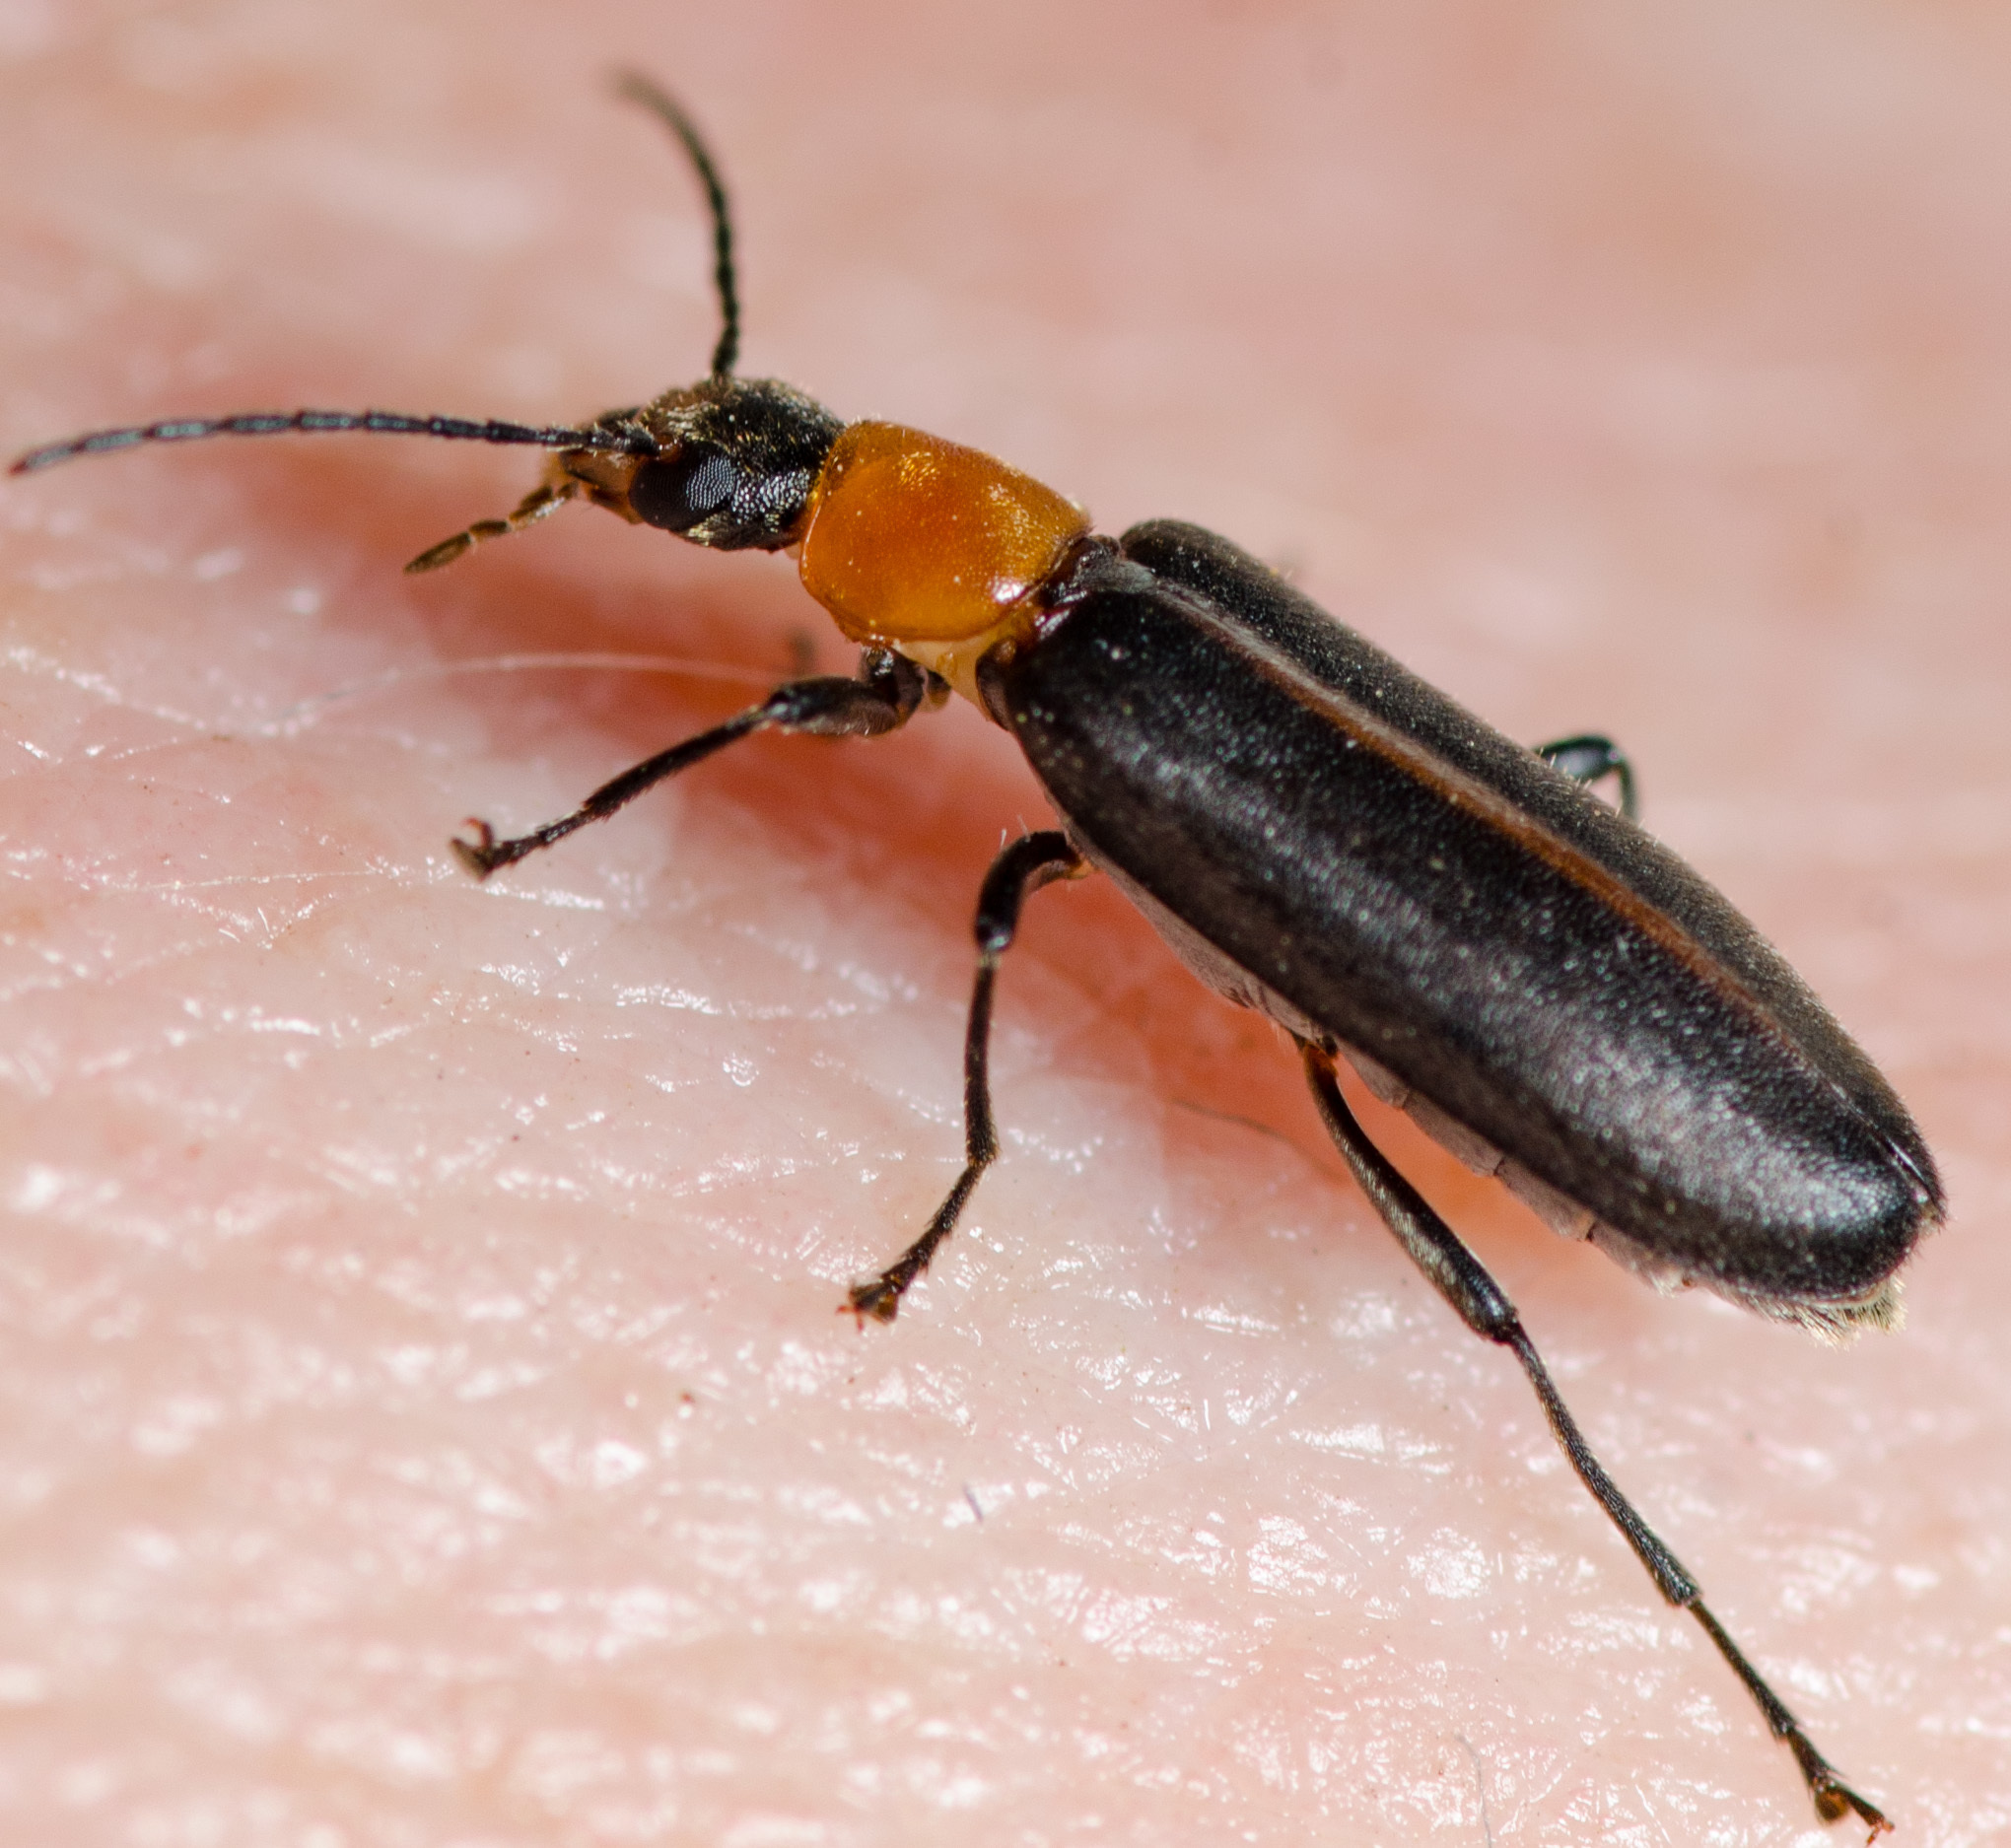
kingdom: Animalia
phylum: Arthropoda
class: Insecta
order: Coleoptera
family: Melandryidae
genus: Osphya
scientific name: Osphya varians
